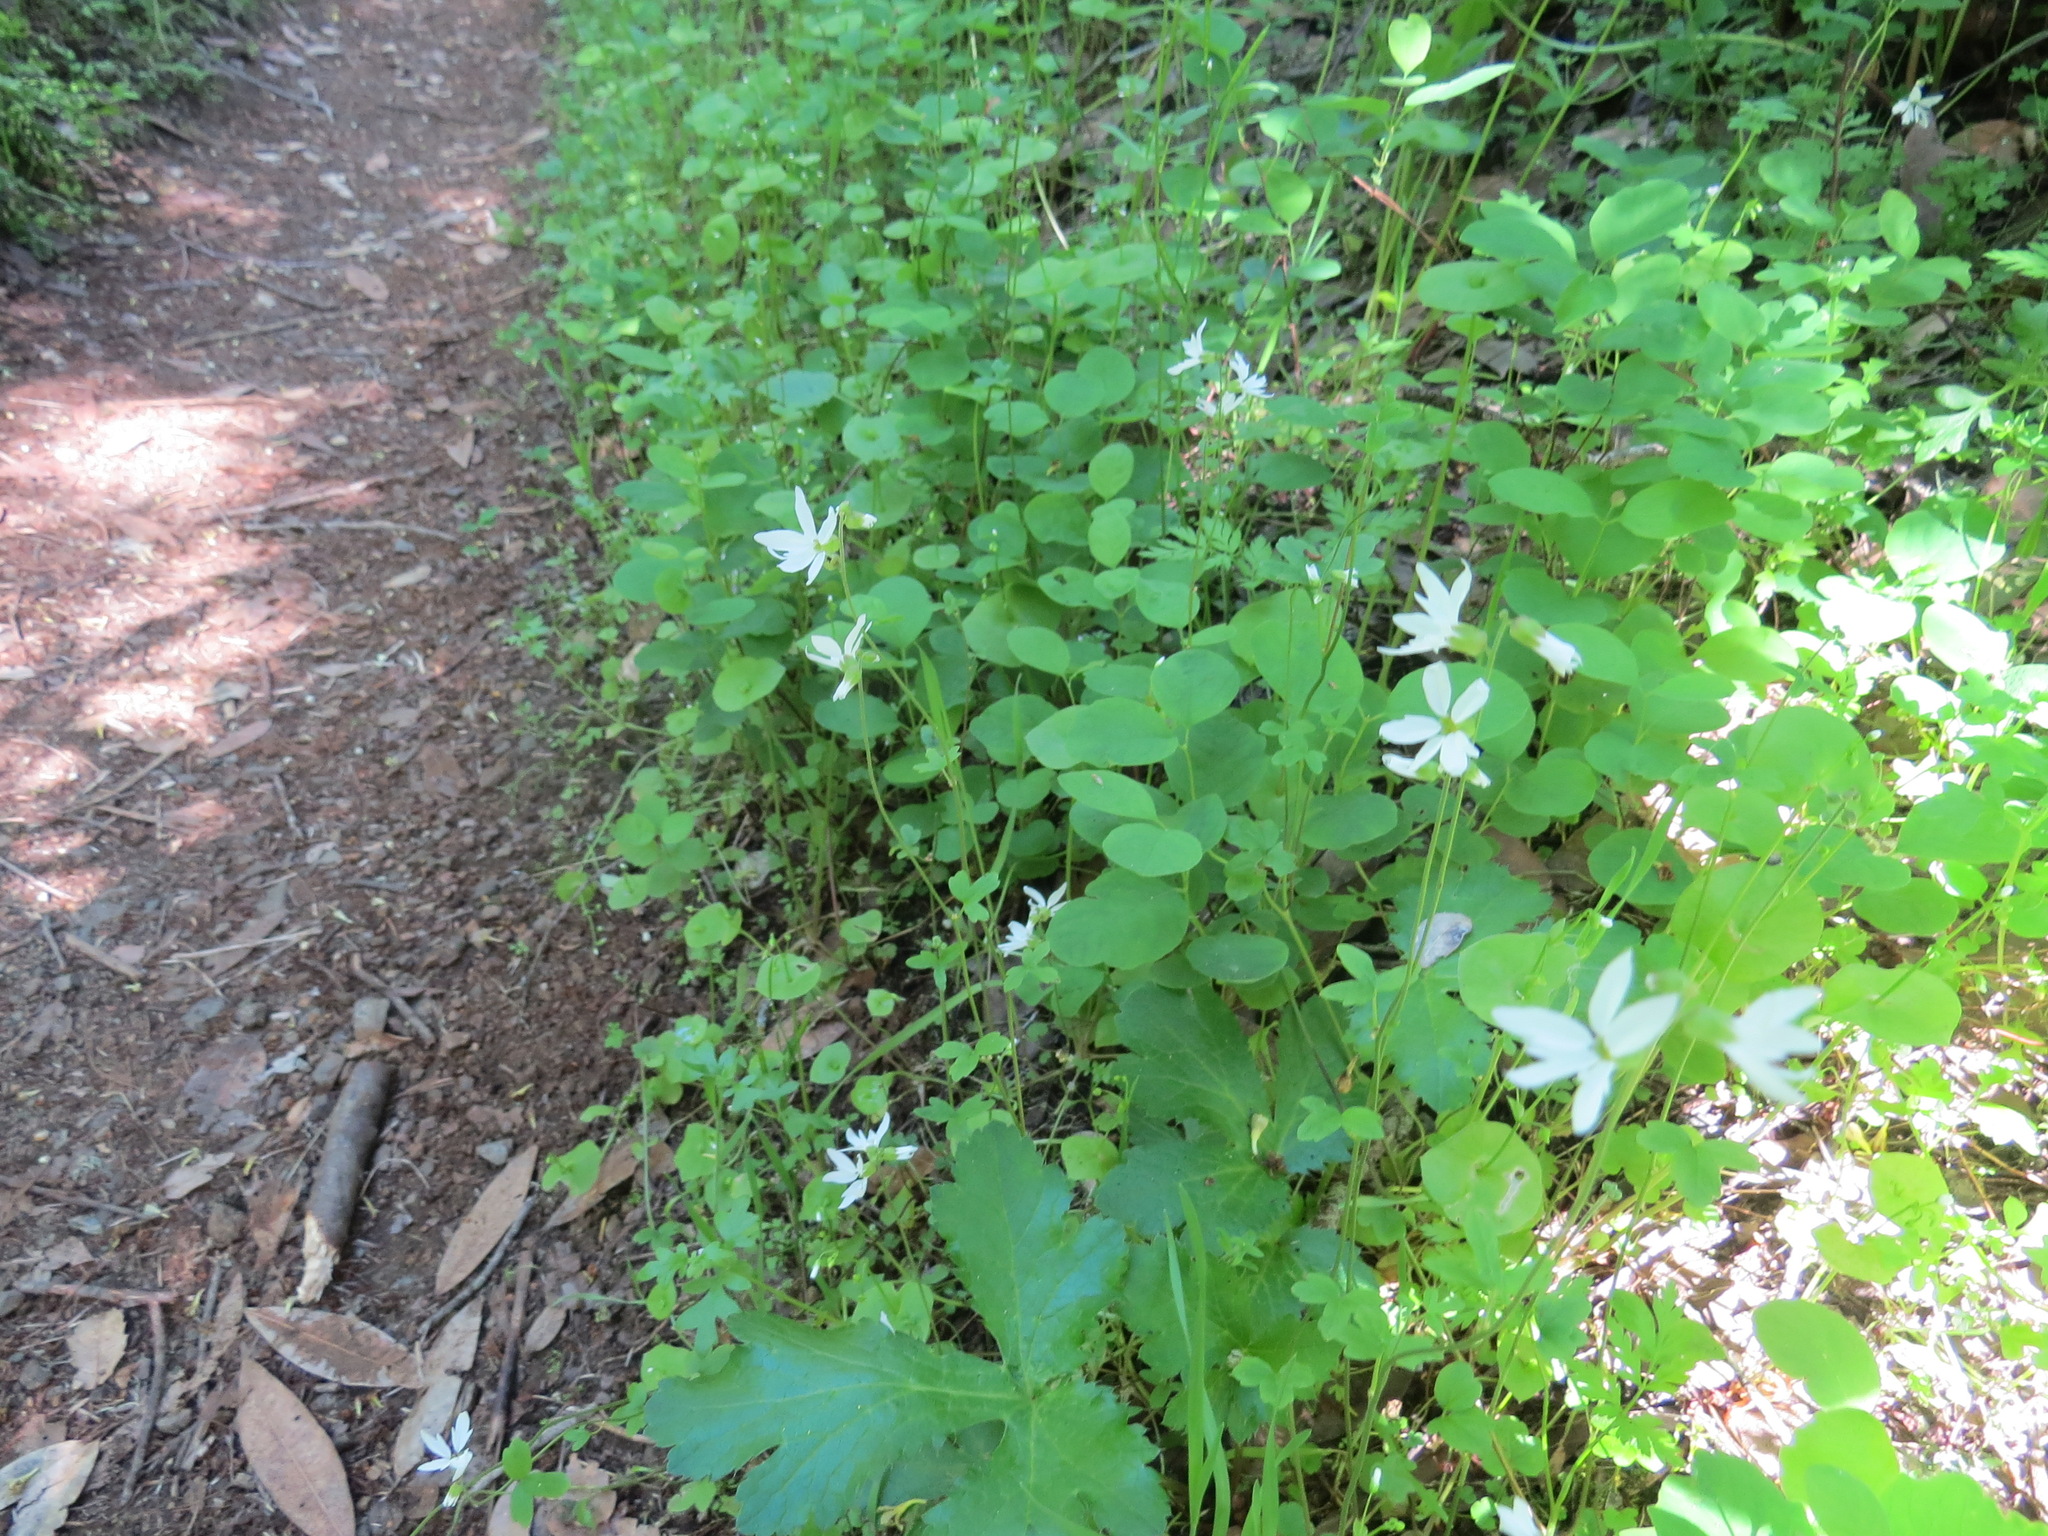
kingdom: Plantae
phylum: Tracheophyta
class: Magnoliopsida
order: Saxifragales
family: Saxifragaceae
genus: Lithophragma
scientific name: Lithophragma heterophyllum
